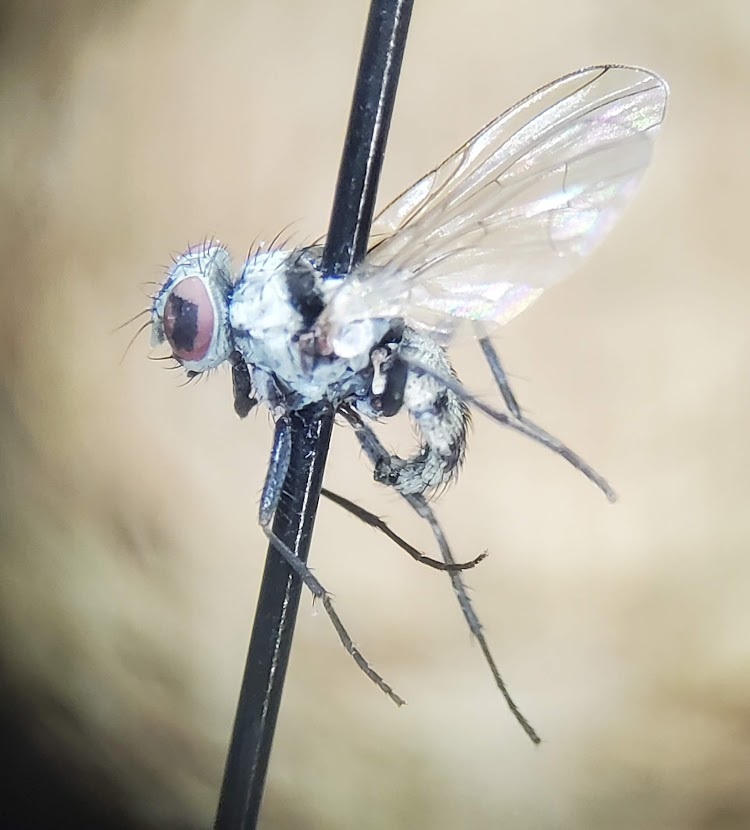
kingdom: Animalia
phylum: Arthropoda
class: Insecta
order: Diptera
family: Anthomyiidae
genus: Anthomyia
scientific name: Anthomyia illocata
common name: Fly
